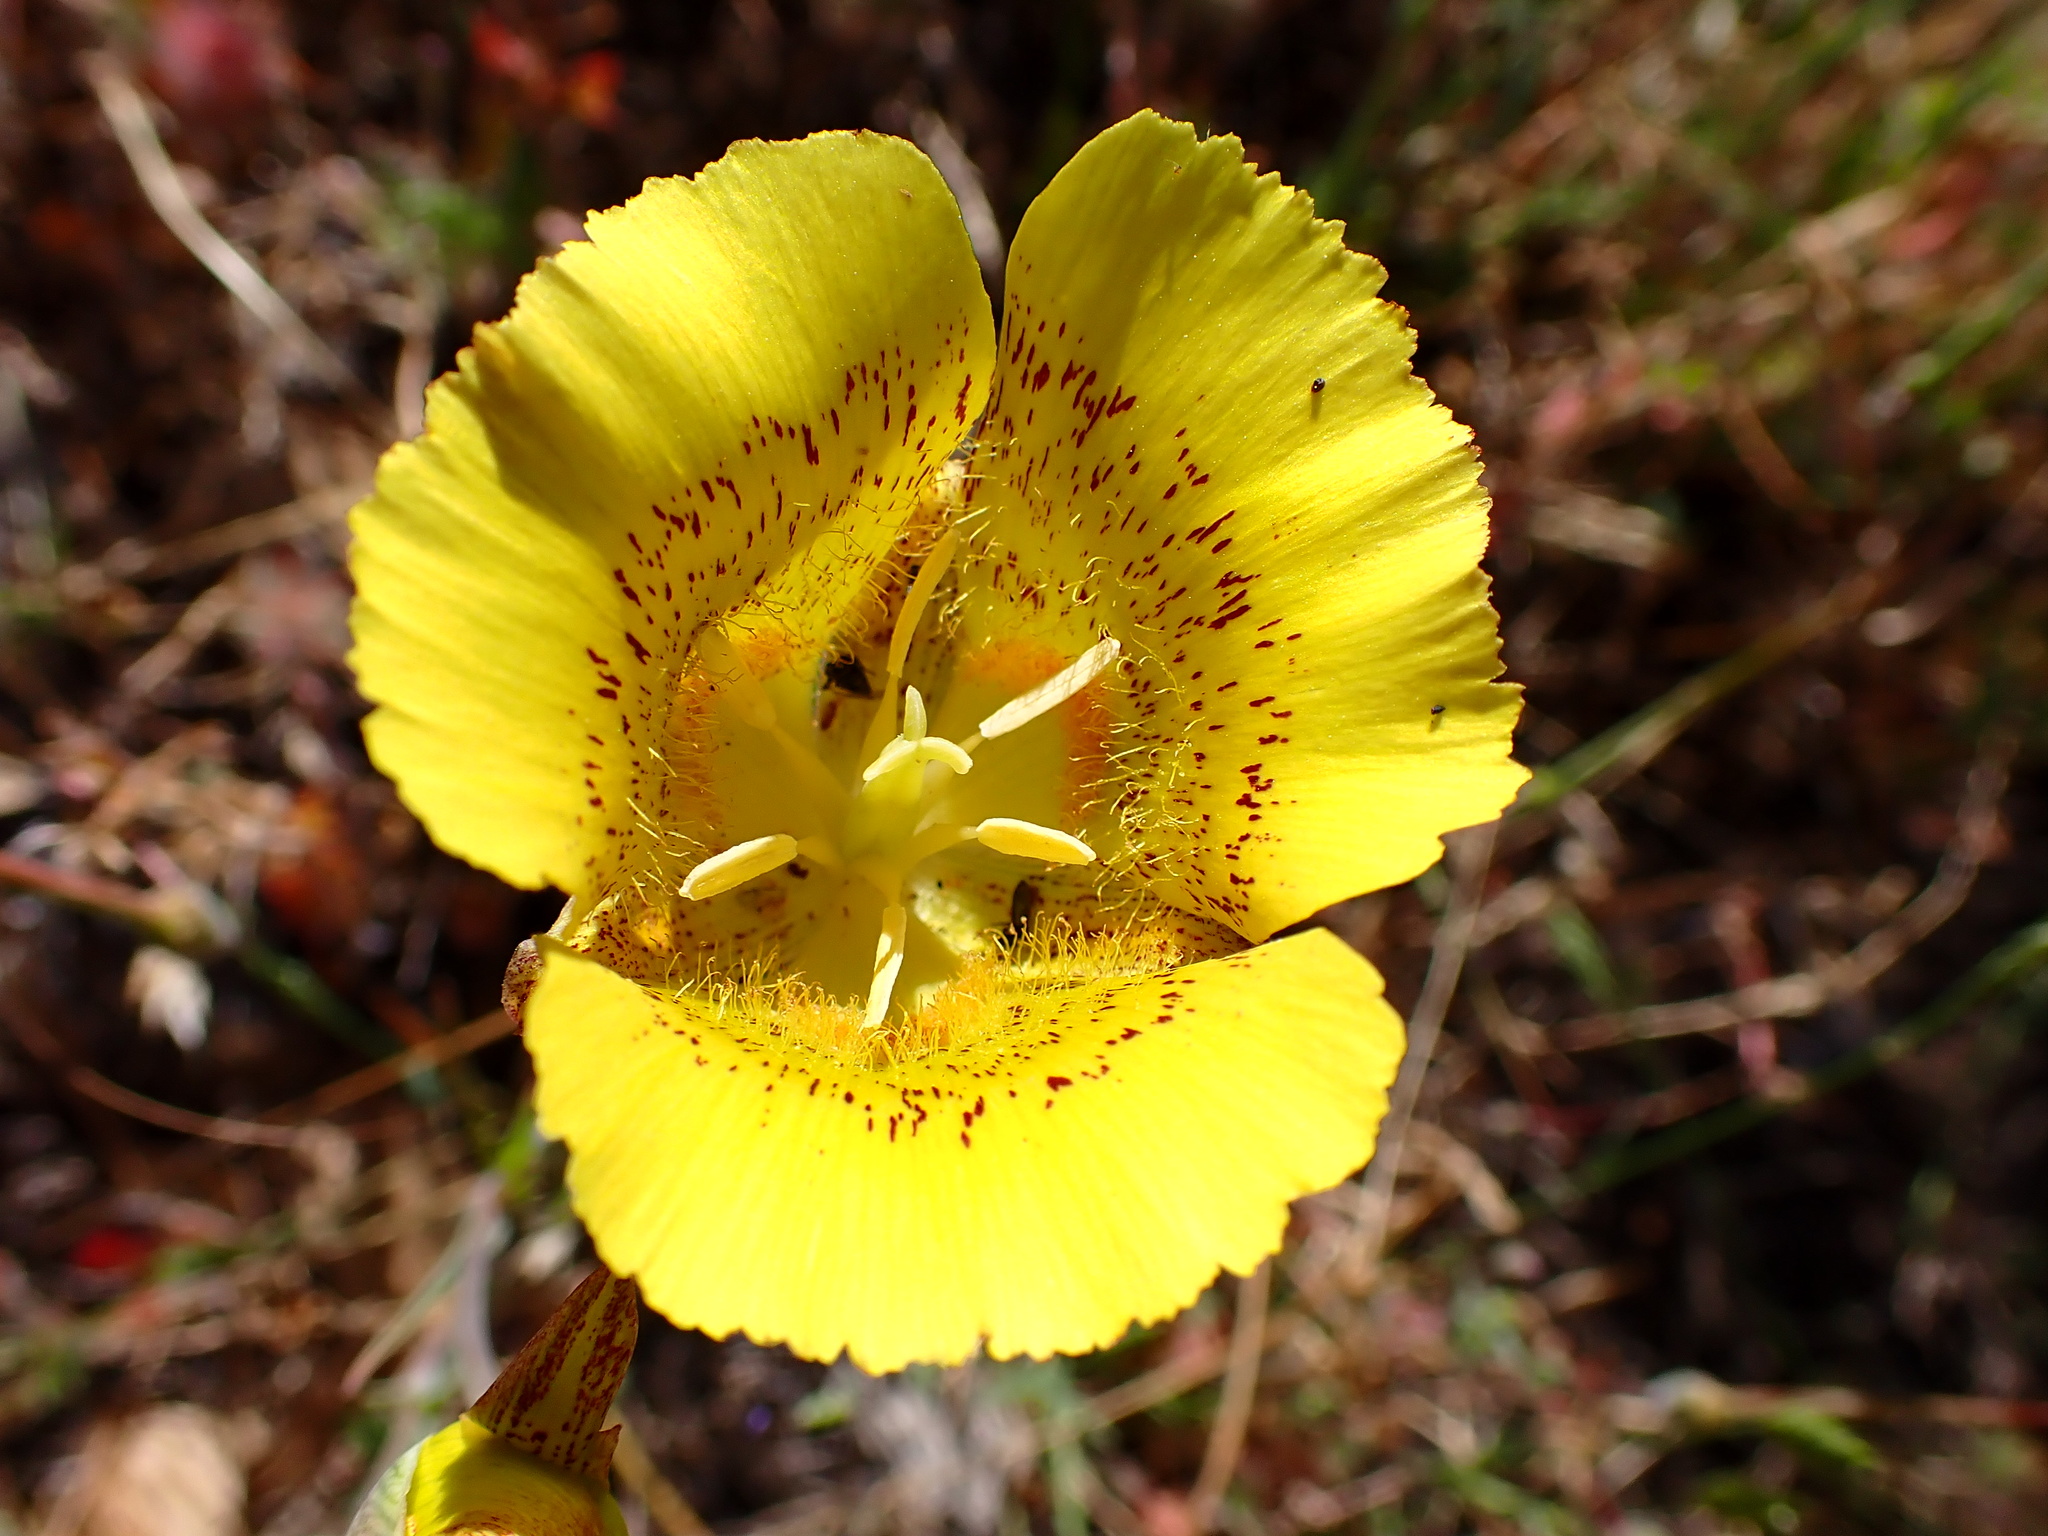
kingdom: Plantae
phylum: Tracheophyta
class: Liliopsida
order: Liliales
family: Liliaceae
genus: Calochortus
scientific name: Calochortus luteus
